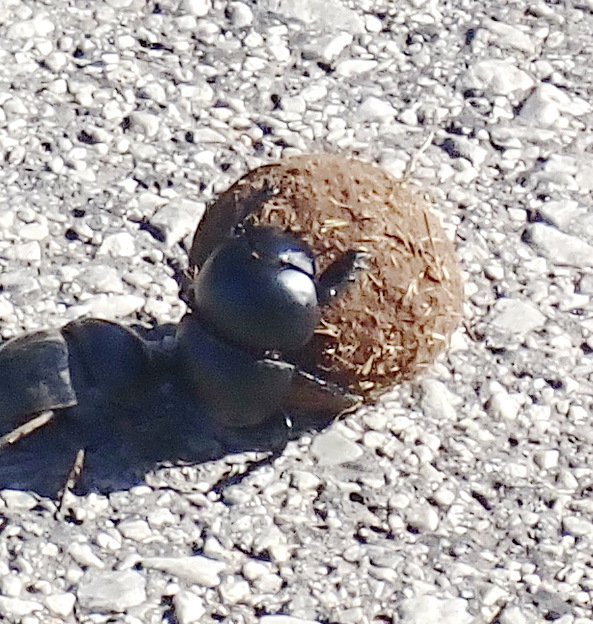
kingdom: Animalia
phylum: Arthropoda
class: Insecta
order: Coleoptera
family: Scarabaeidae
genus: Circellium
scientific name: Circellium bacchus
